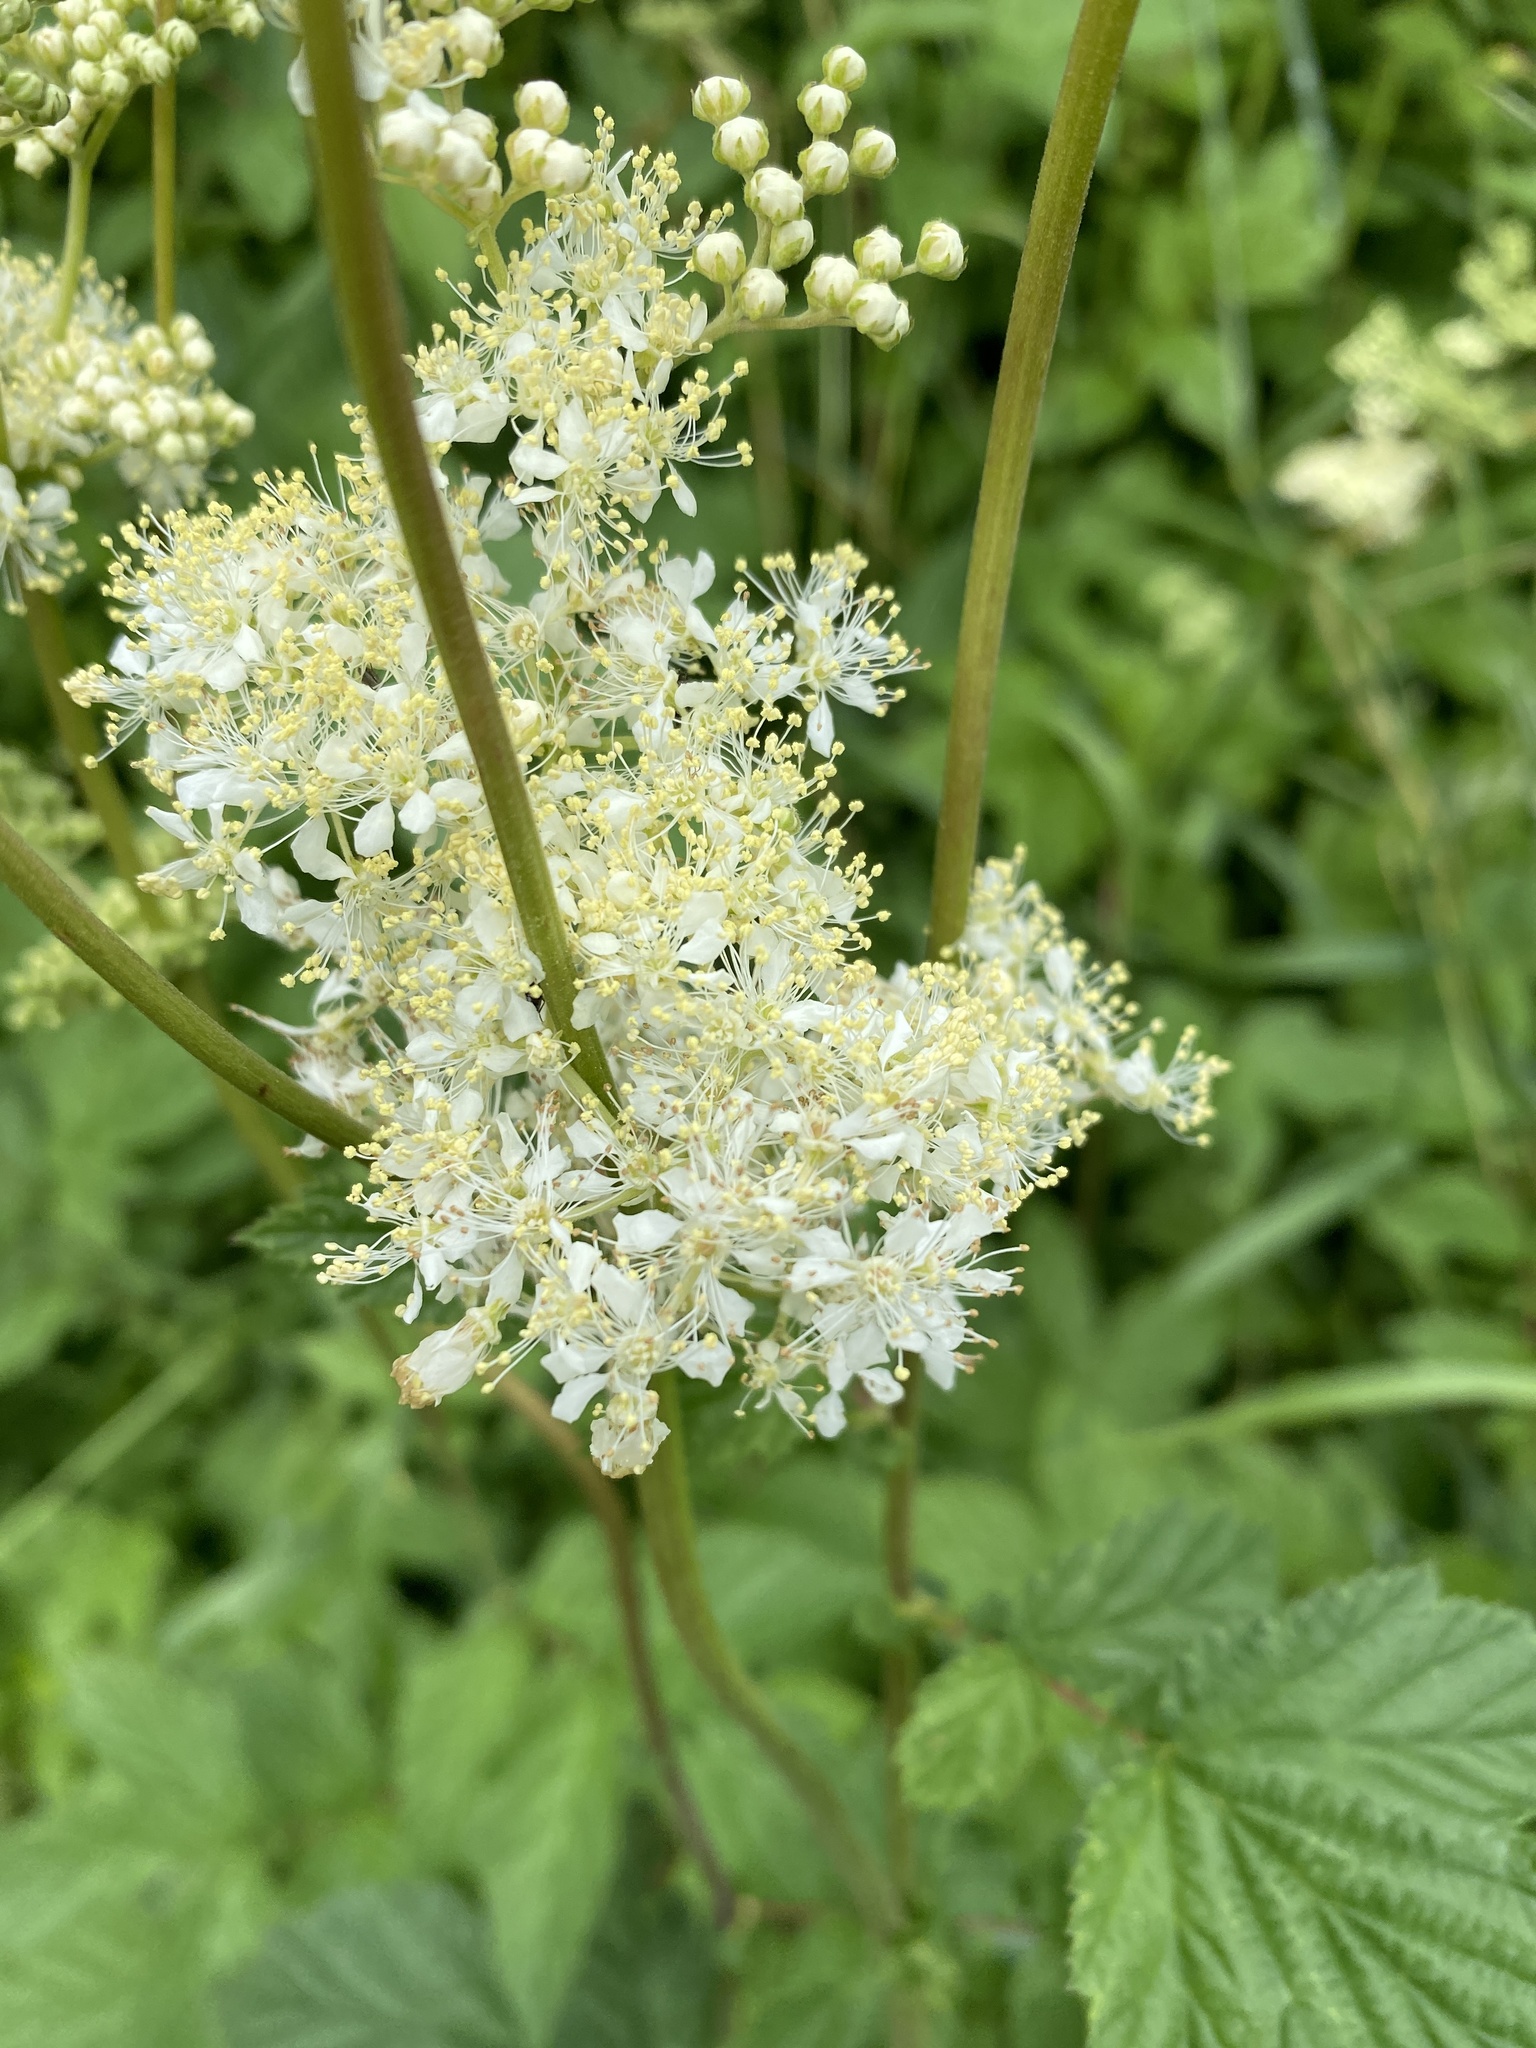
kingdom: Plantae
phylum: Tracheophyta
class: Magnoliopsida
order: Rosales
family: Rosaceae
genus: Filipendula
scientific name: Filipendula ulmaria
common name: Meadowsweet
